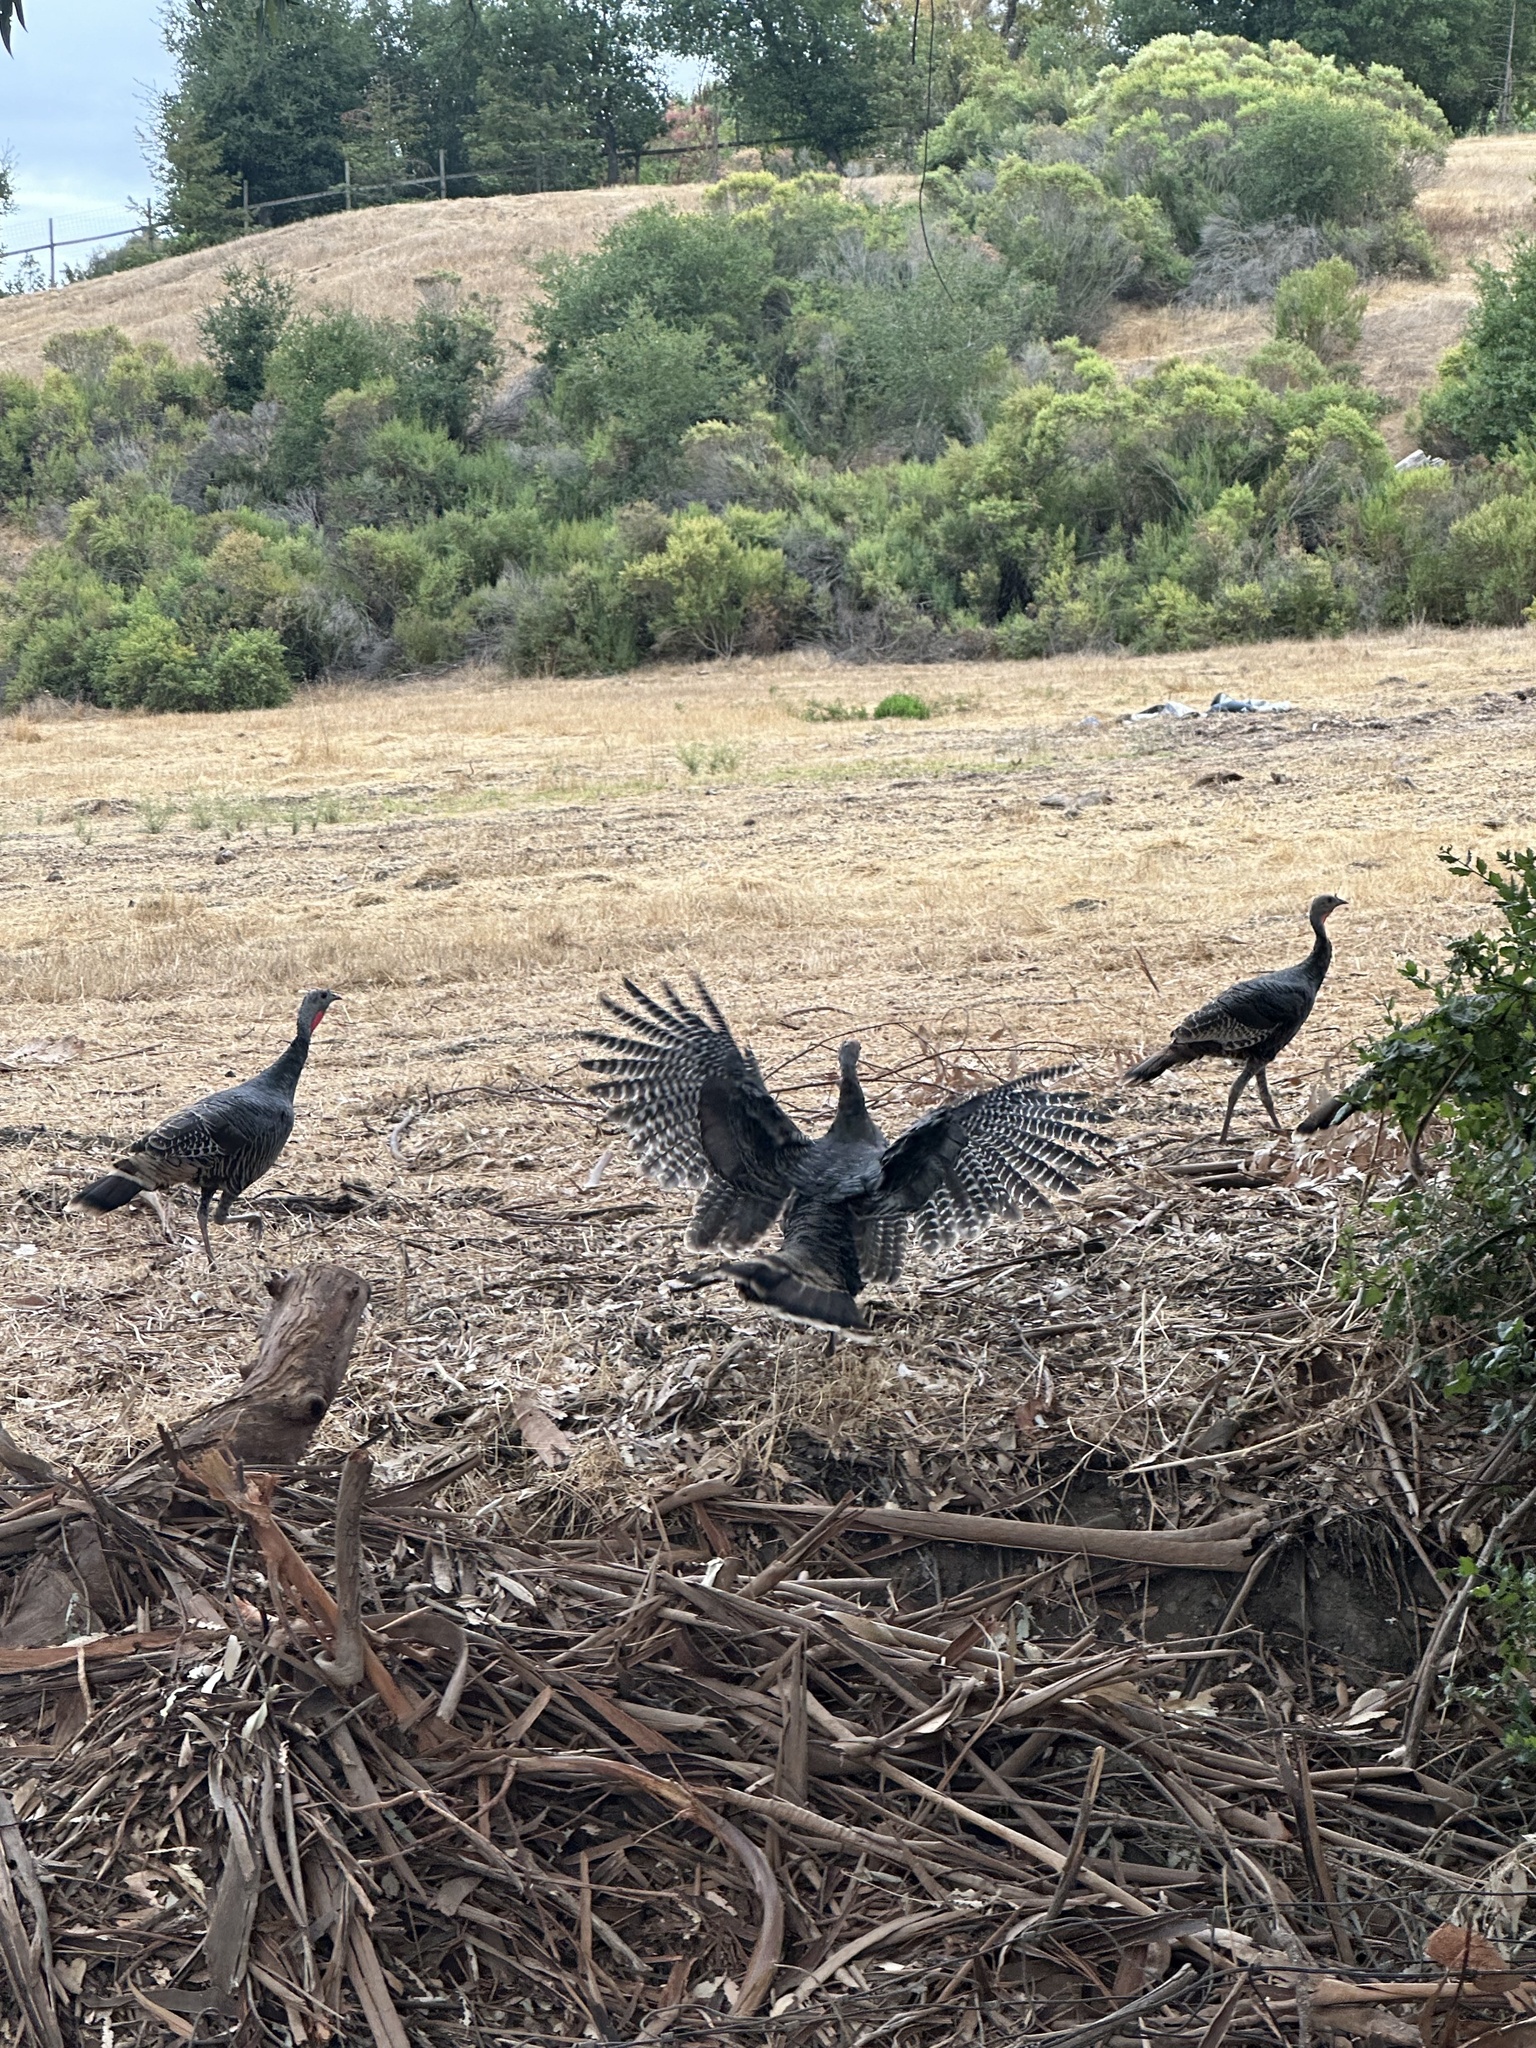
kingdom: Animalia
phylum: Chordata
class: Aves
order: Galliformes
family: Phasianidae
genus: Meleagris
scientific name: Meleagris gallopavo
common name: Wild turkey
